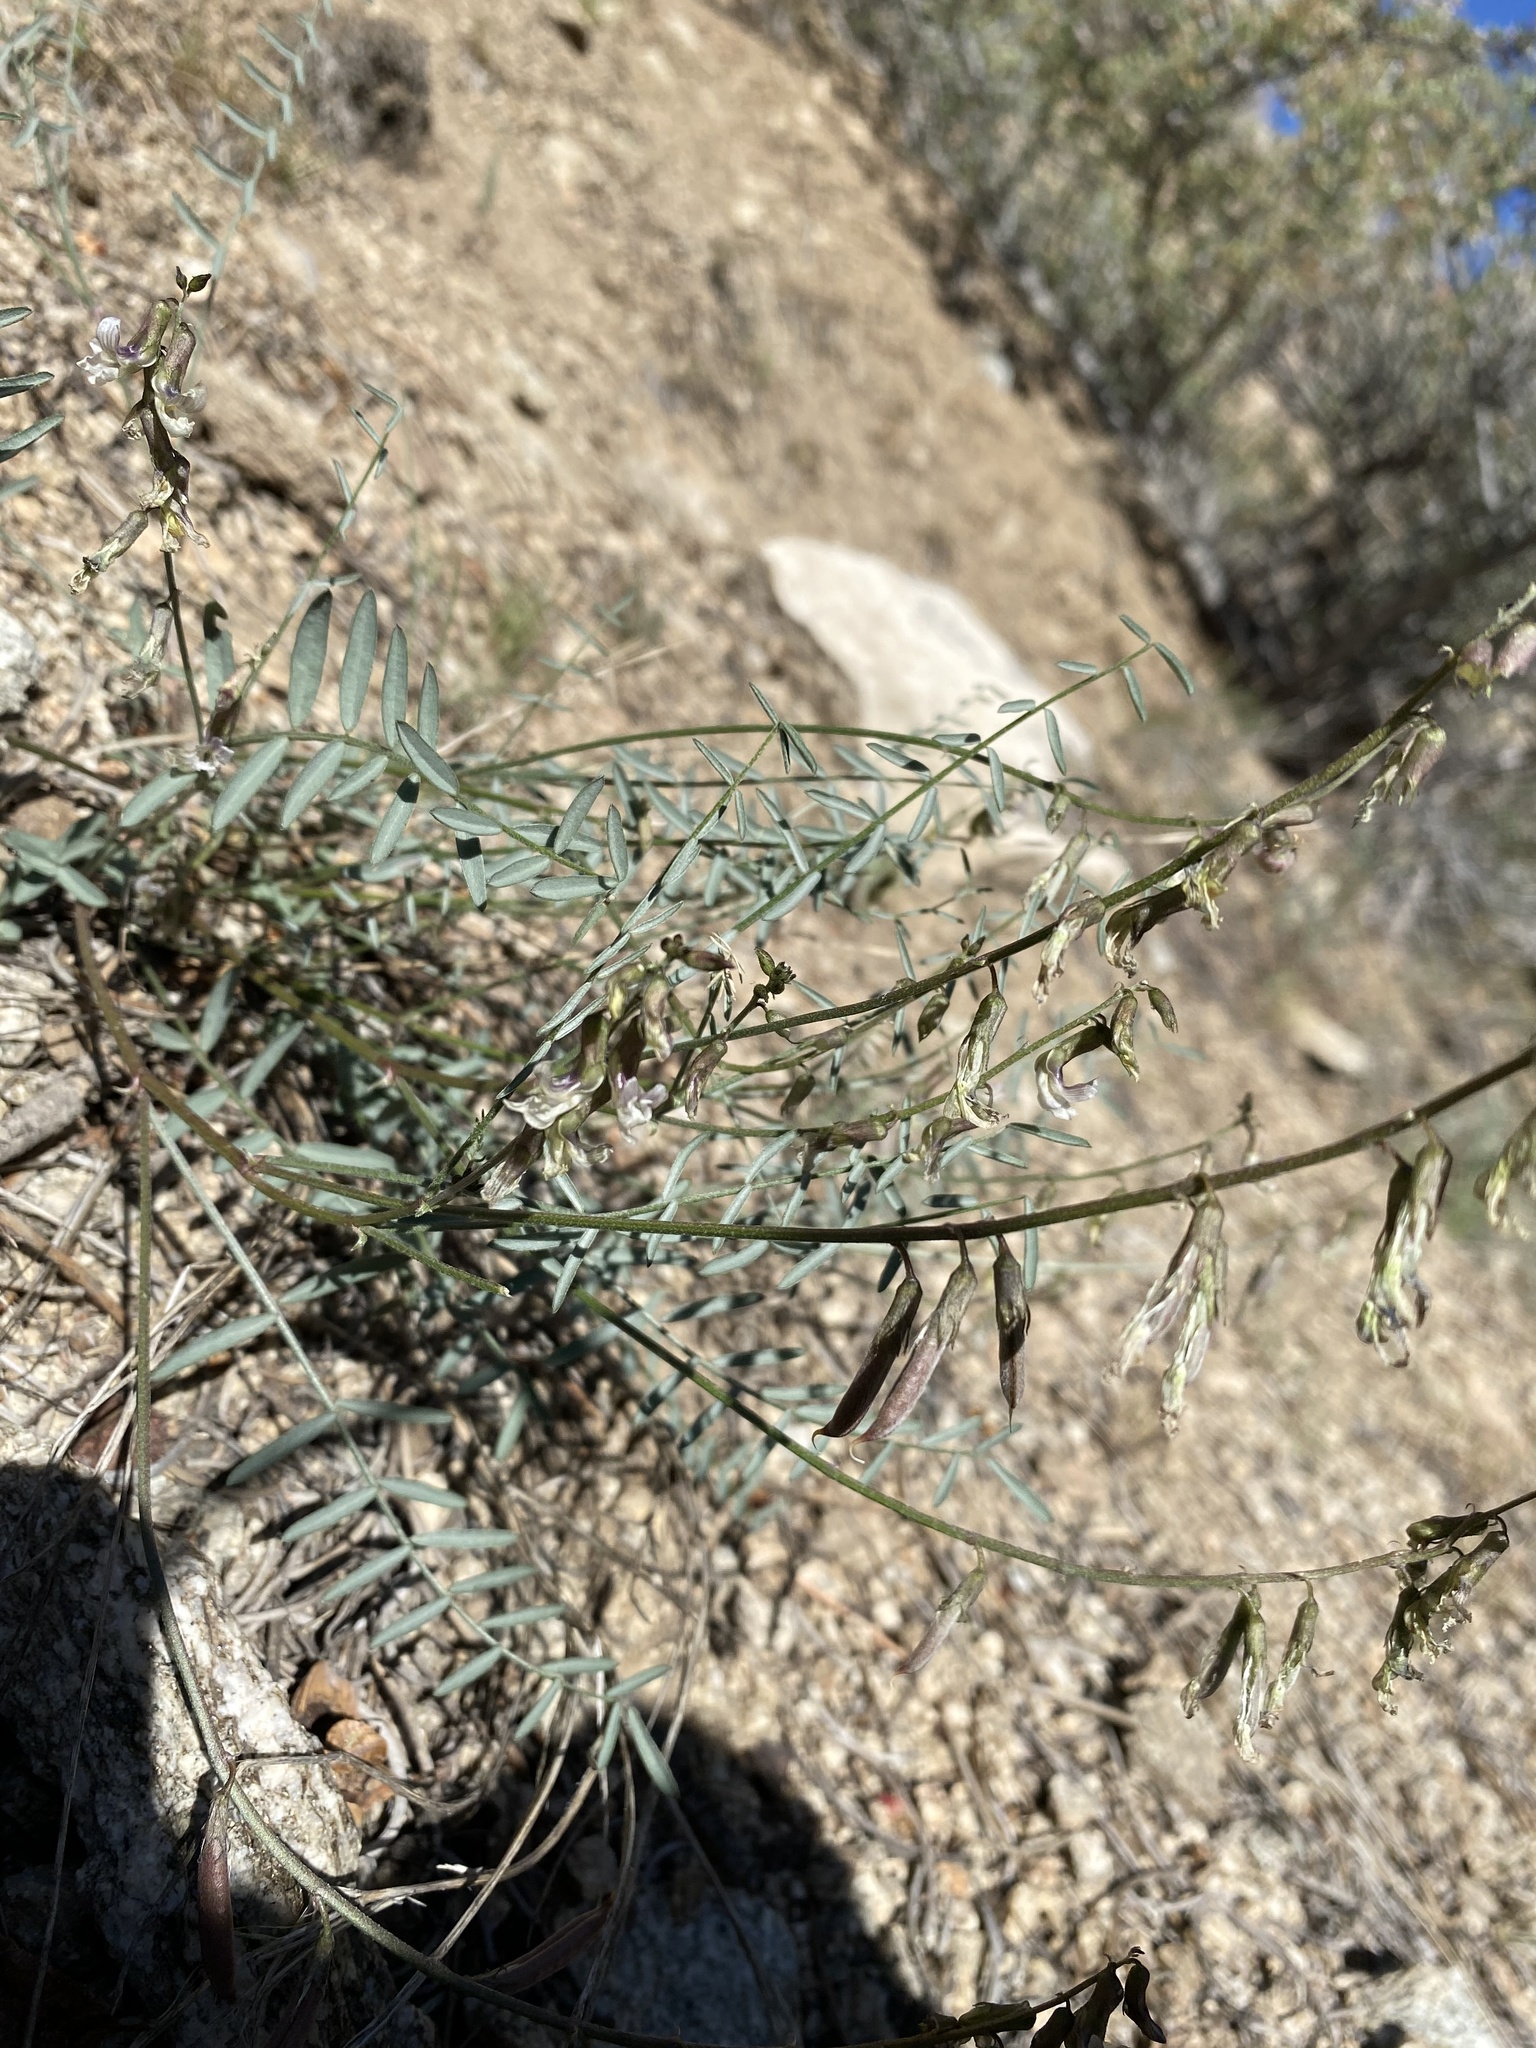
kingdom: Plantae
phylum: Tracheophyta
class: Magnoliopsida
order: Fabales
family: Fabaceae
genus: Astragalus
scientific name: Astragalus atratus
